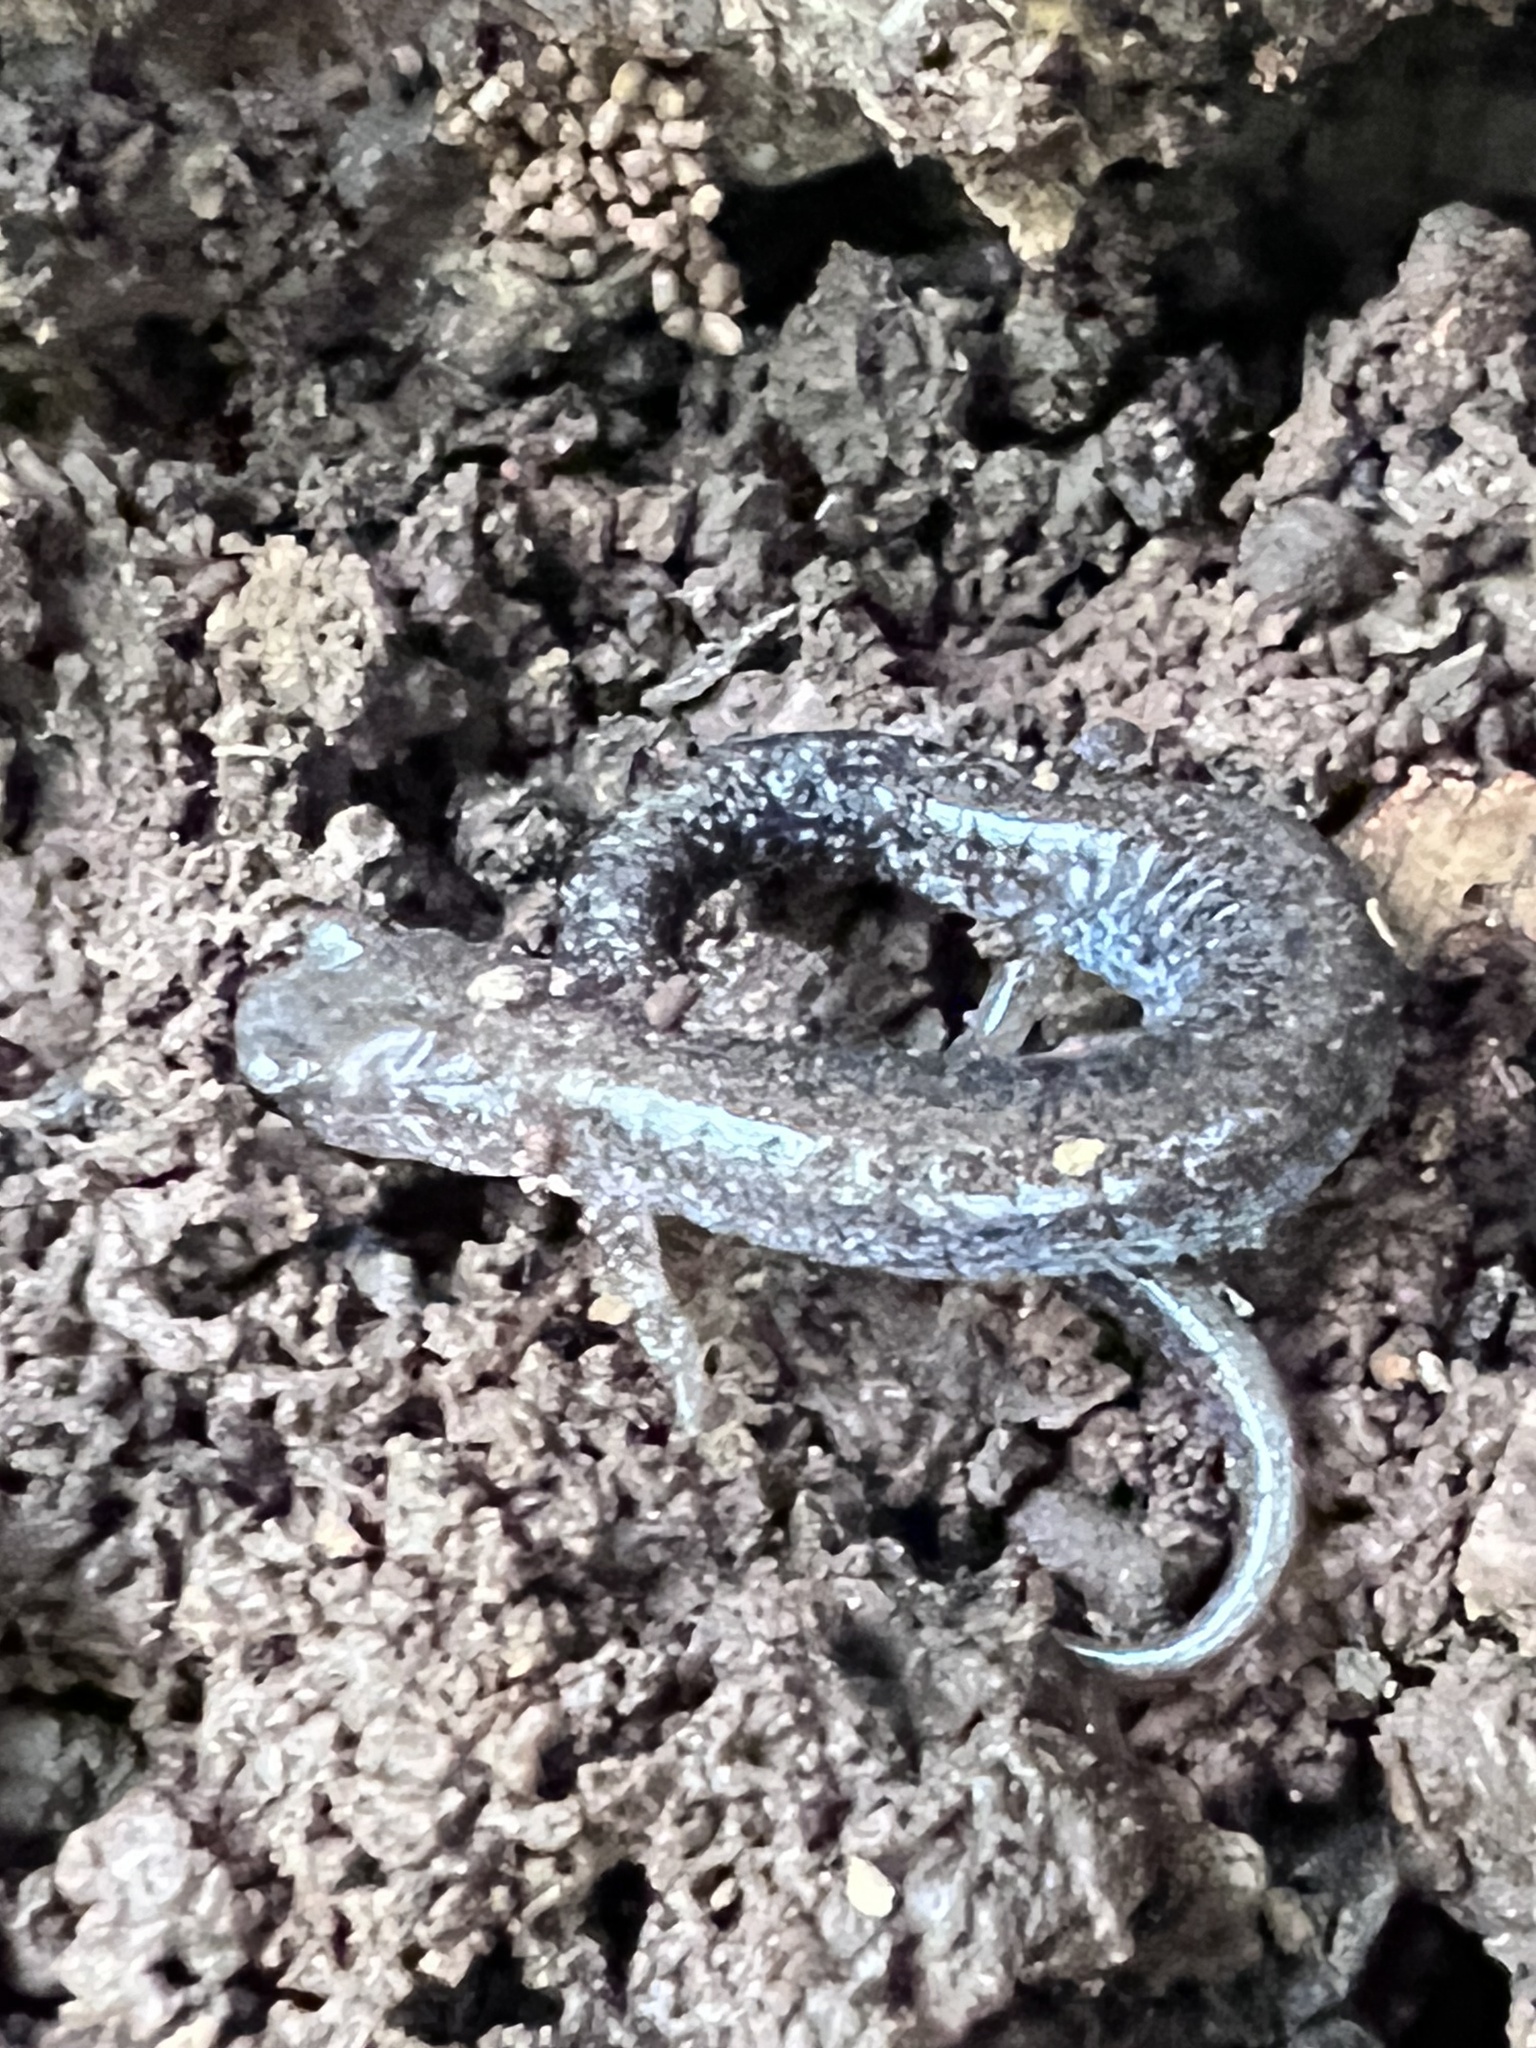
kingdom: Animalia
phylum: Chordata
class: Amphibia
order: Caudata
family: Plethodontidae
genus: Plethodon
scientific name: Plethodon cinereus
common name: Redback salamander
